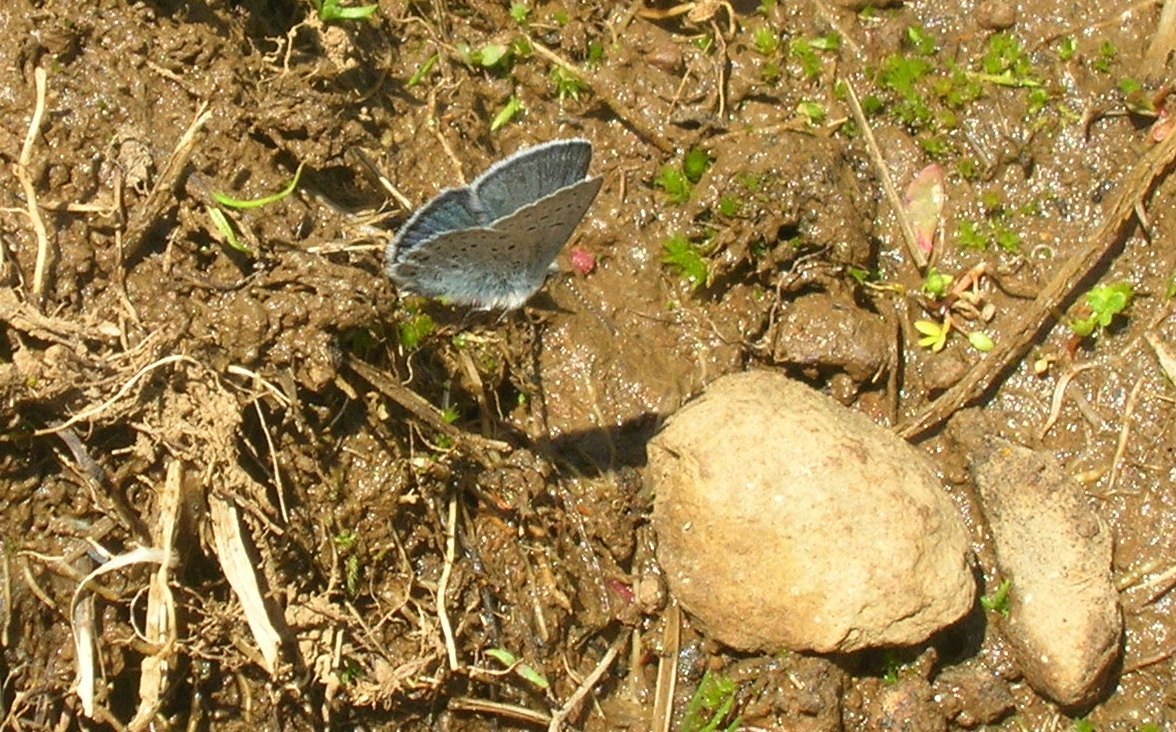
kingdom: Animalia
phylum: Arthropoda
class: Insecta
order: Lepidoptera
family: Lycaenidae
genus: Icaricia
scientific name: Icaricia saepiolus
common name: Greenish blue
